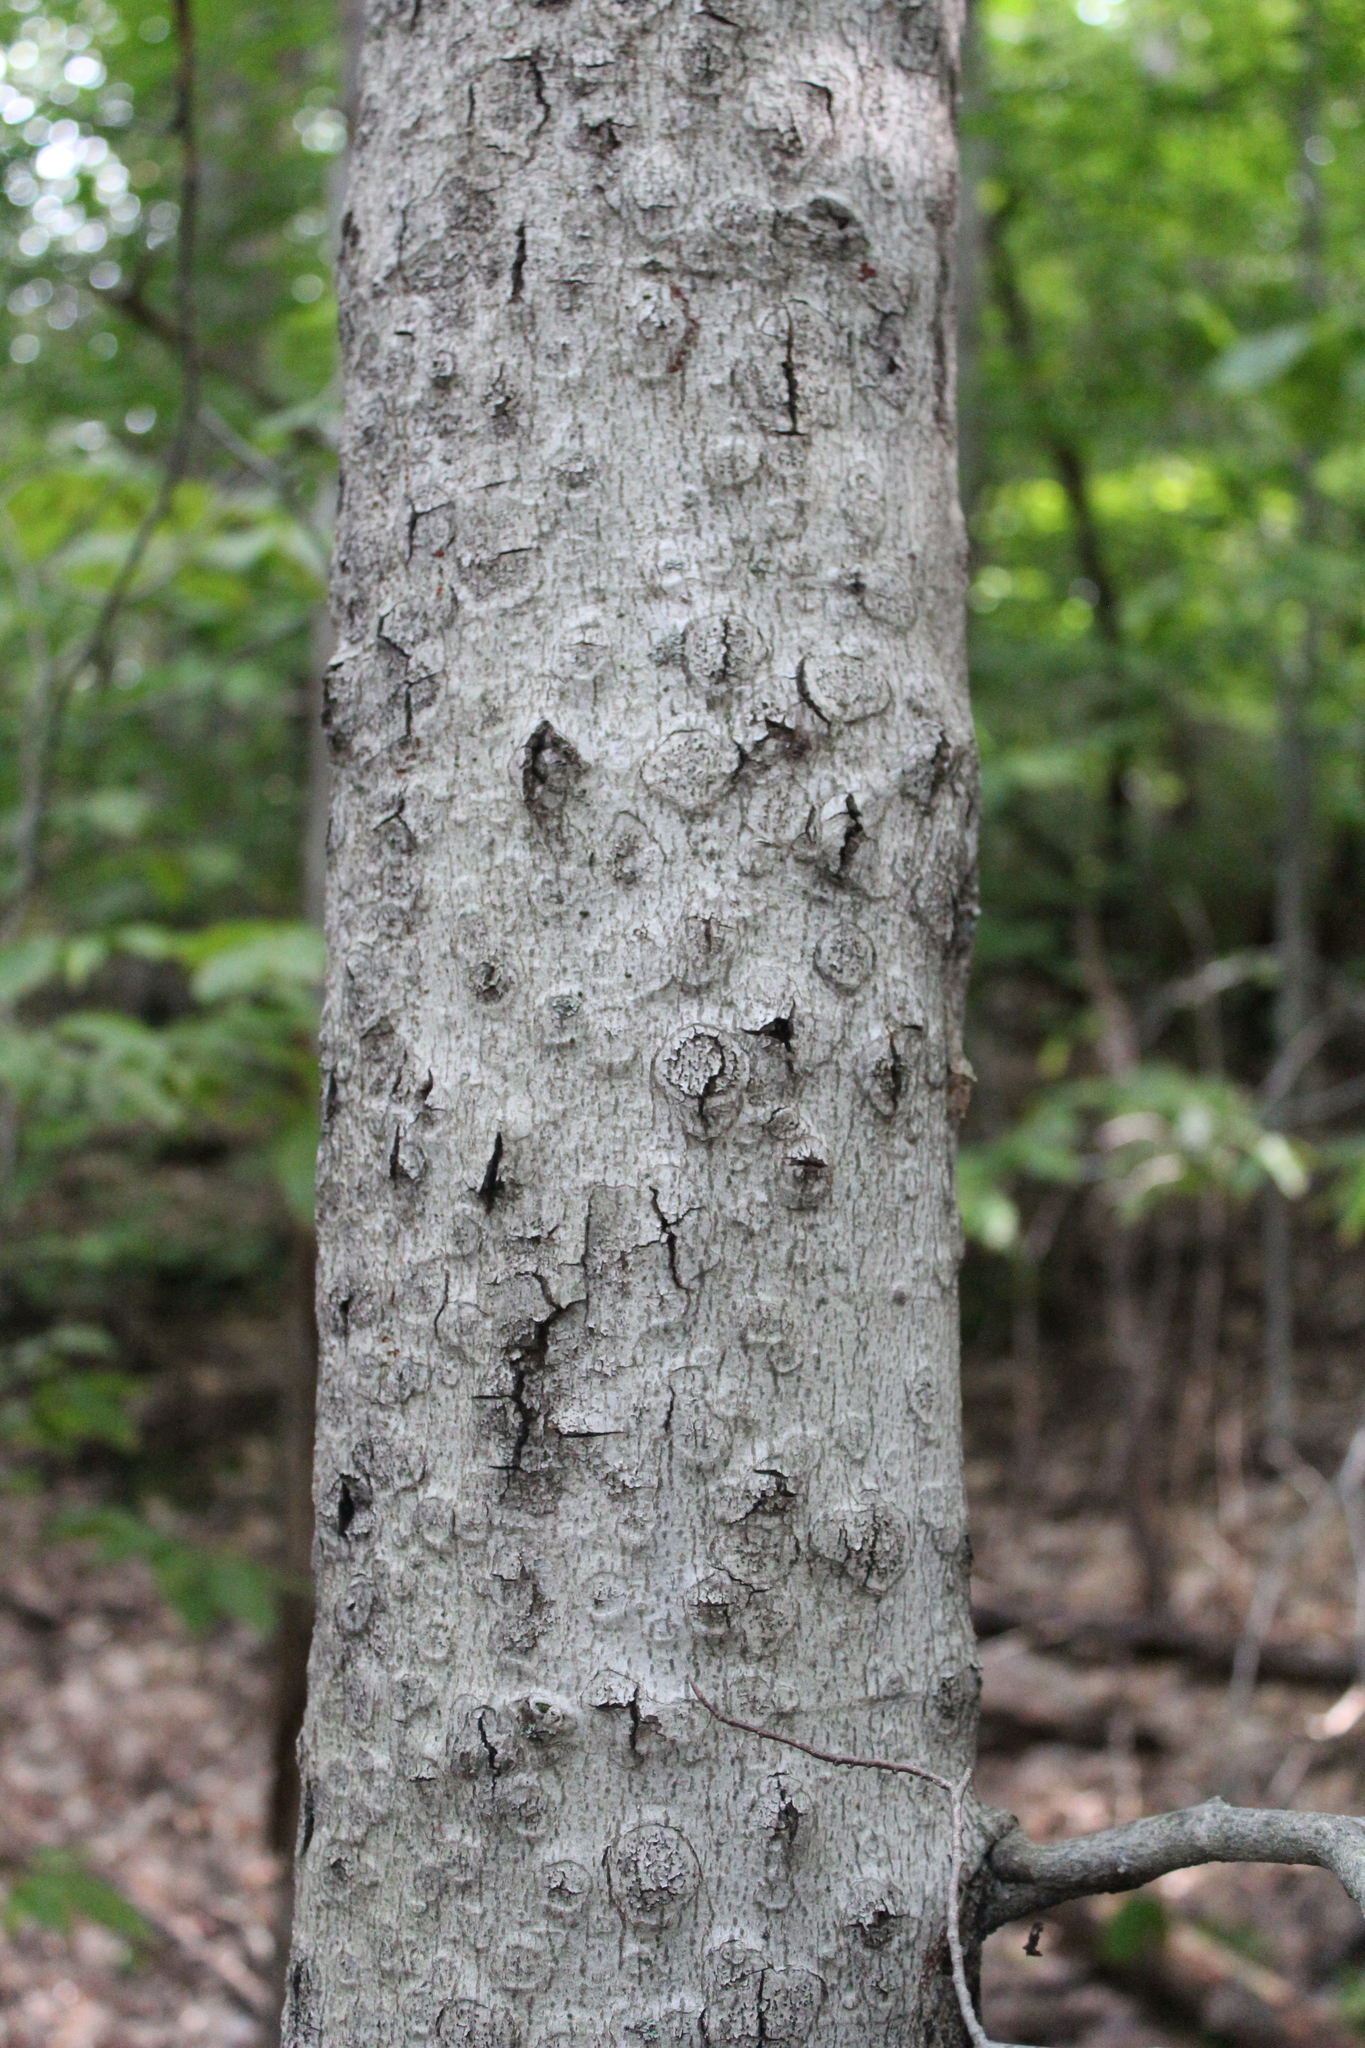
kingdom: Plantae
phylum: Tracheophyta
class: Magnoliopsida
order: Fagales
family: Fagaceae
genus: Fagus
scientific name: Fagus grandifolia
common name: American beech
